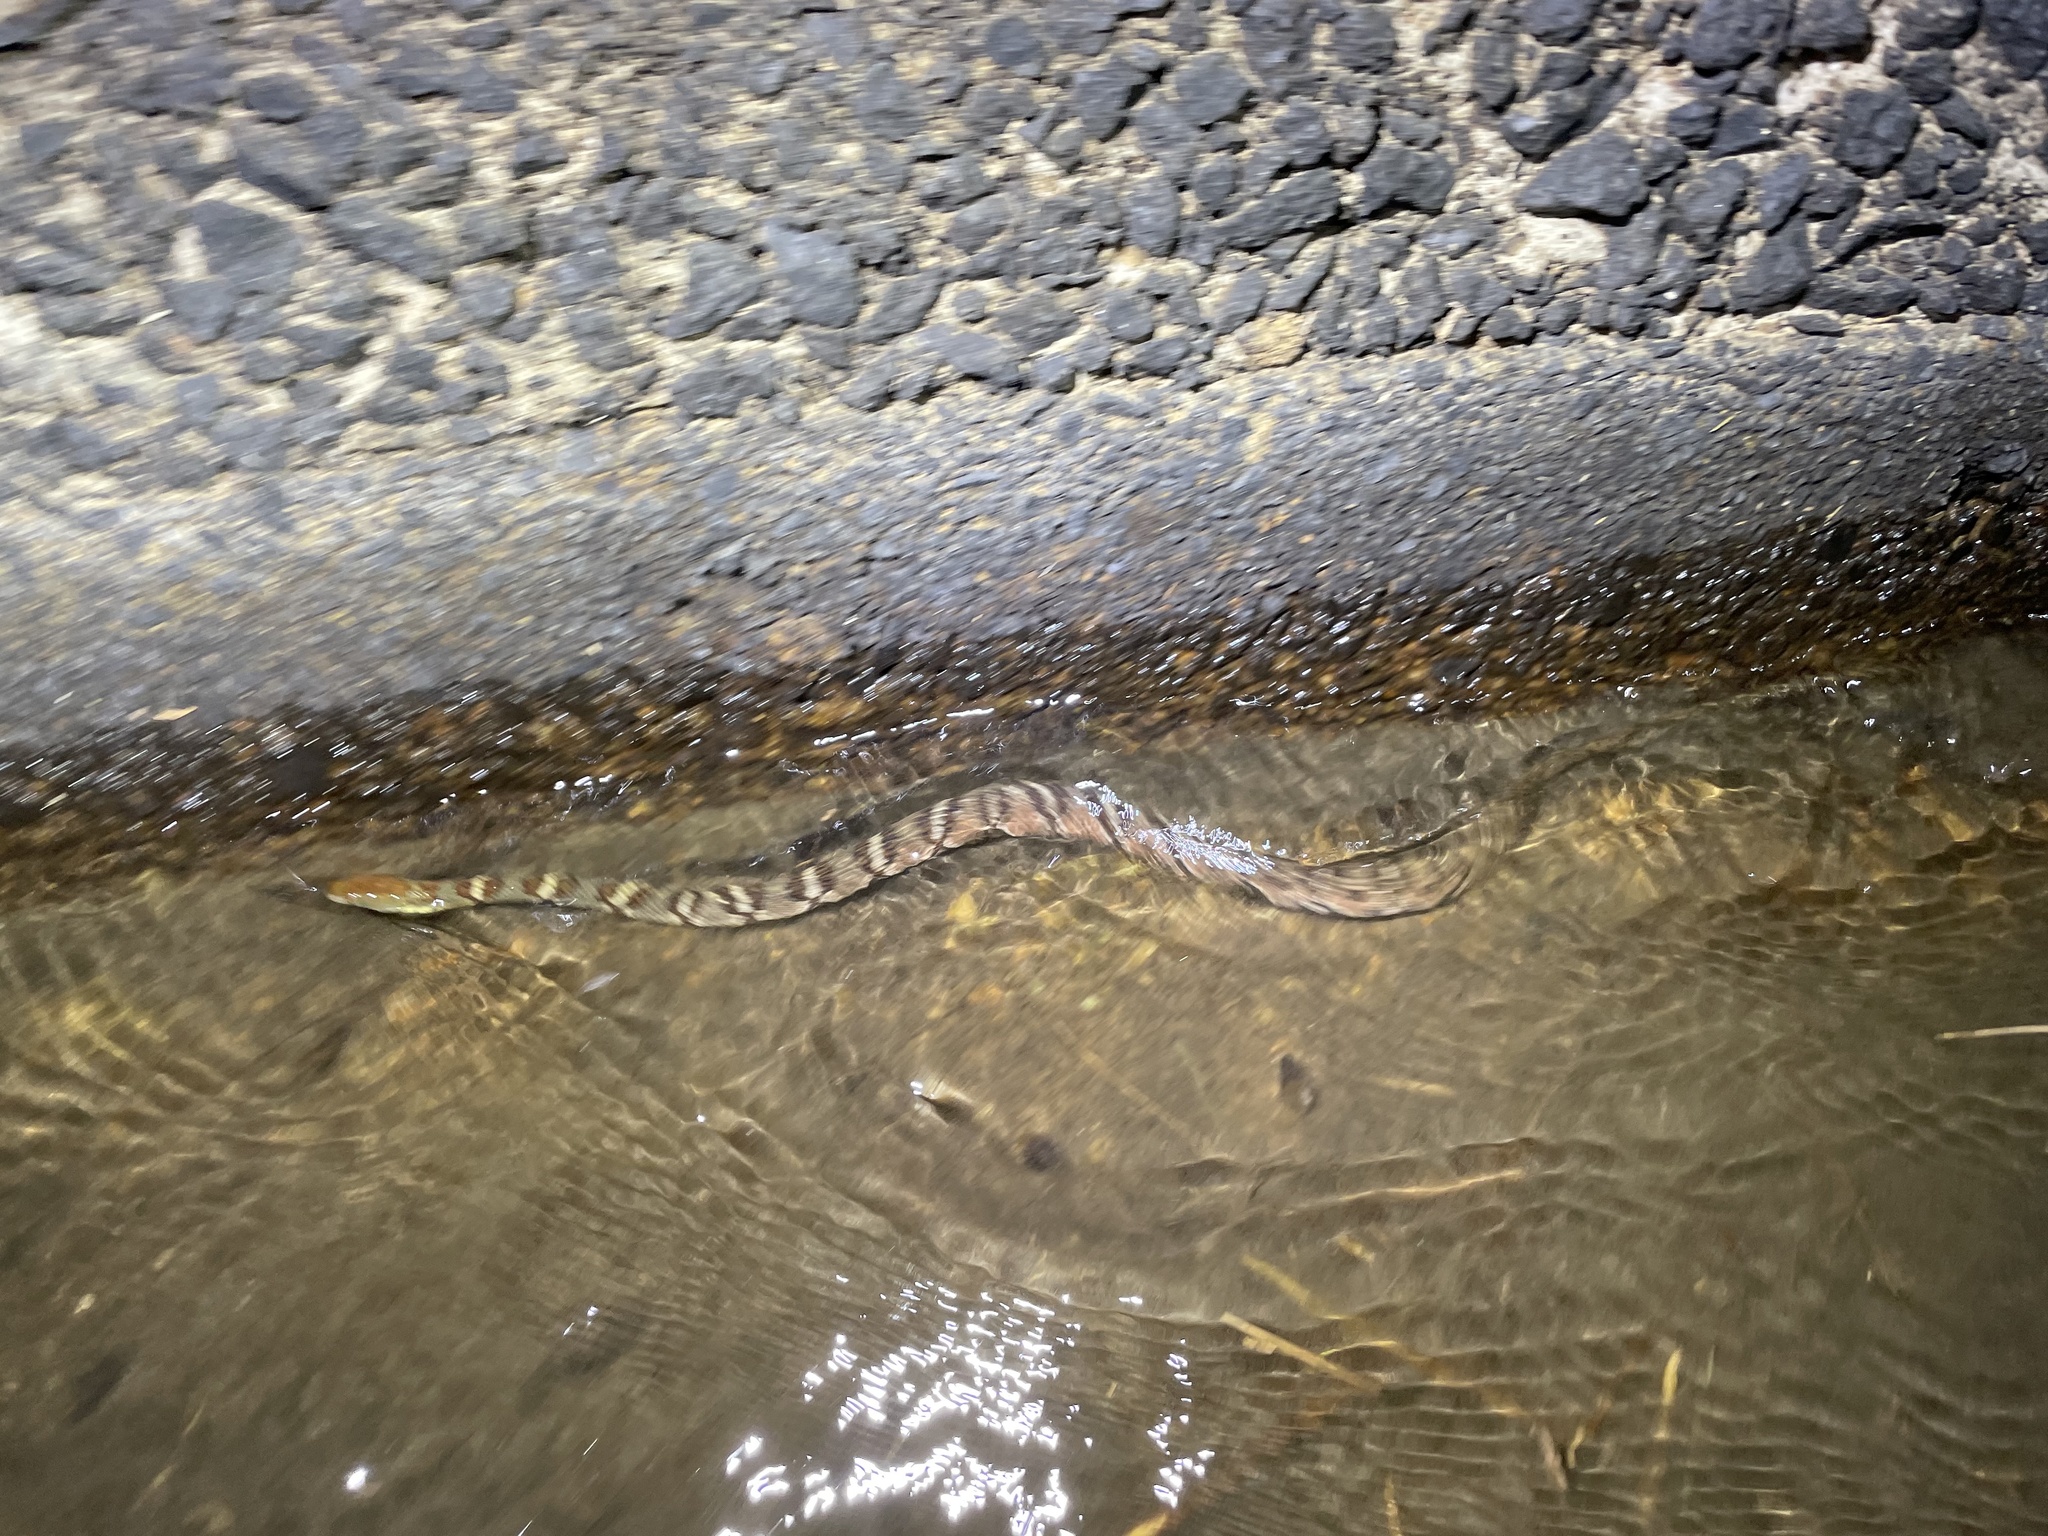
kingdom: Animalia
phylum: Chordata
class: Squamata
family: Colubridae
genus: Trimerodytes
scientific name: Trimerodytes aequifasciatus
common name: Asiatic water snake
